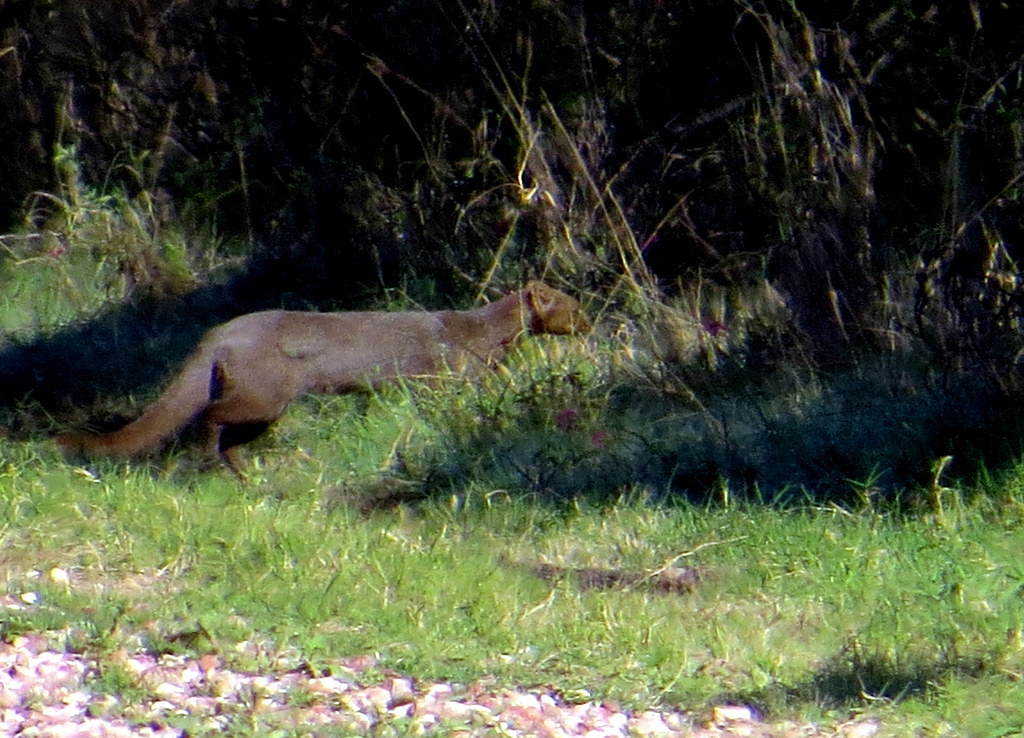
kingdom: Animalia
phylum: Chordata
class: Mammalia
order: Carnivora
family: Felidae
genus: Puma
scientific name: Puma yagouaroundi
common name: Jaguarundi
